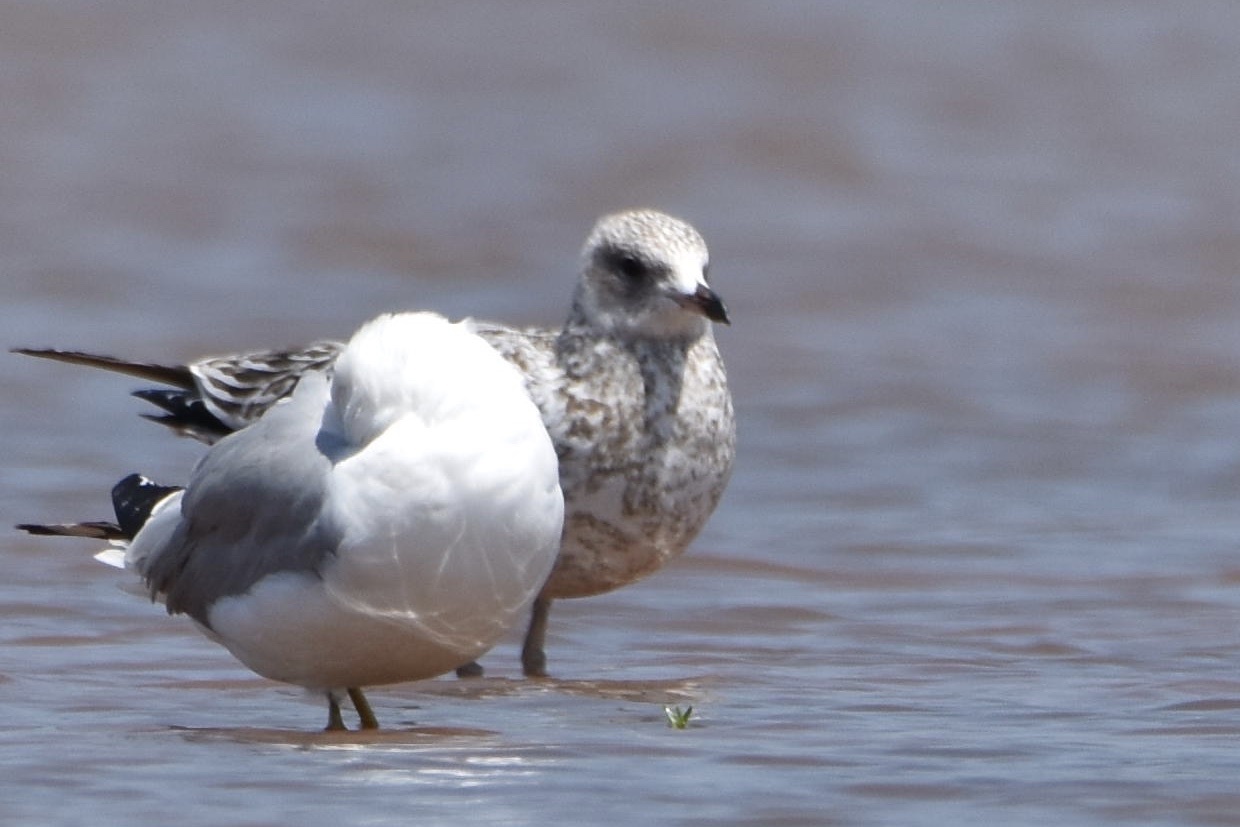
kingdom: Animalia
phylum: Chordata
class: Aves
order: Charadriiformes
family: Laridae
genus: Larus
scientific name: Larus delawarensis
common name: Ring-billed gull
